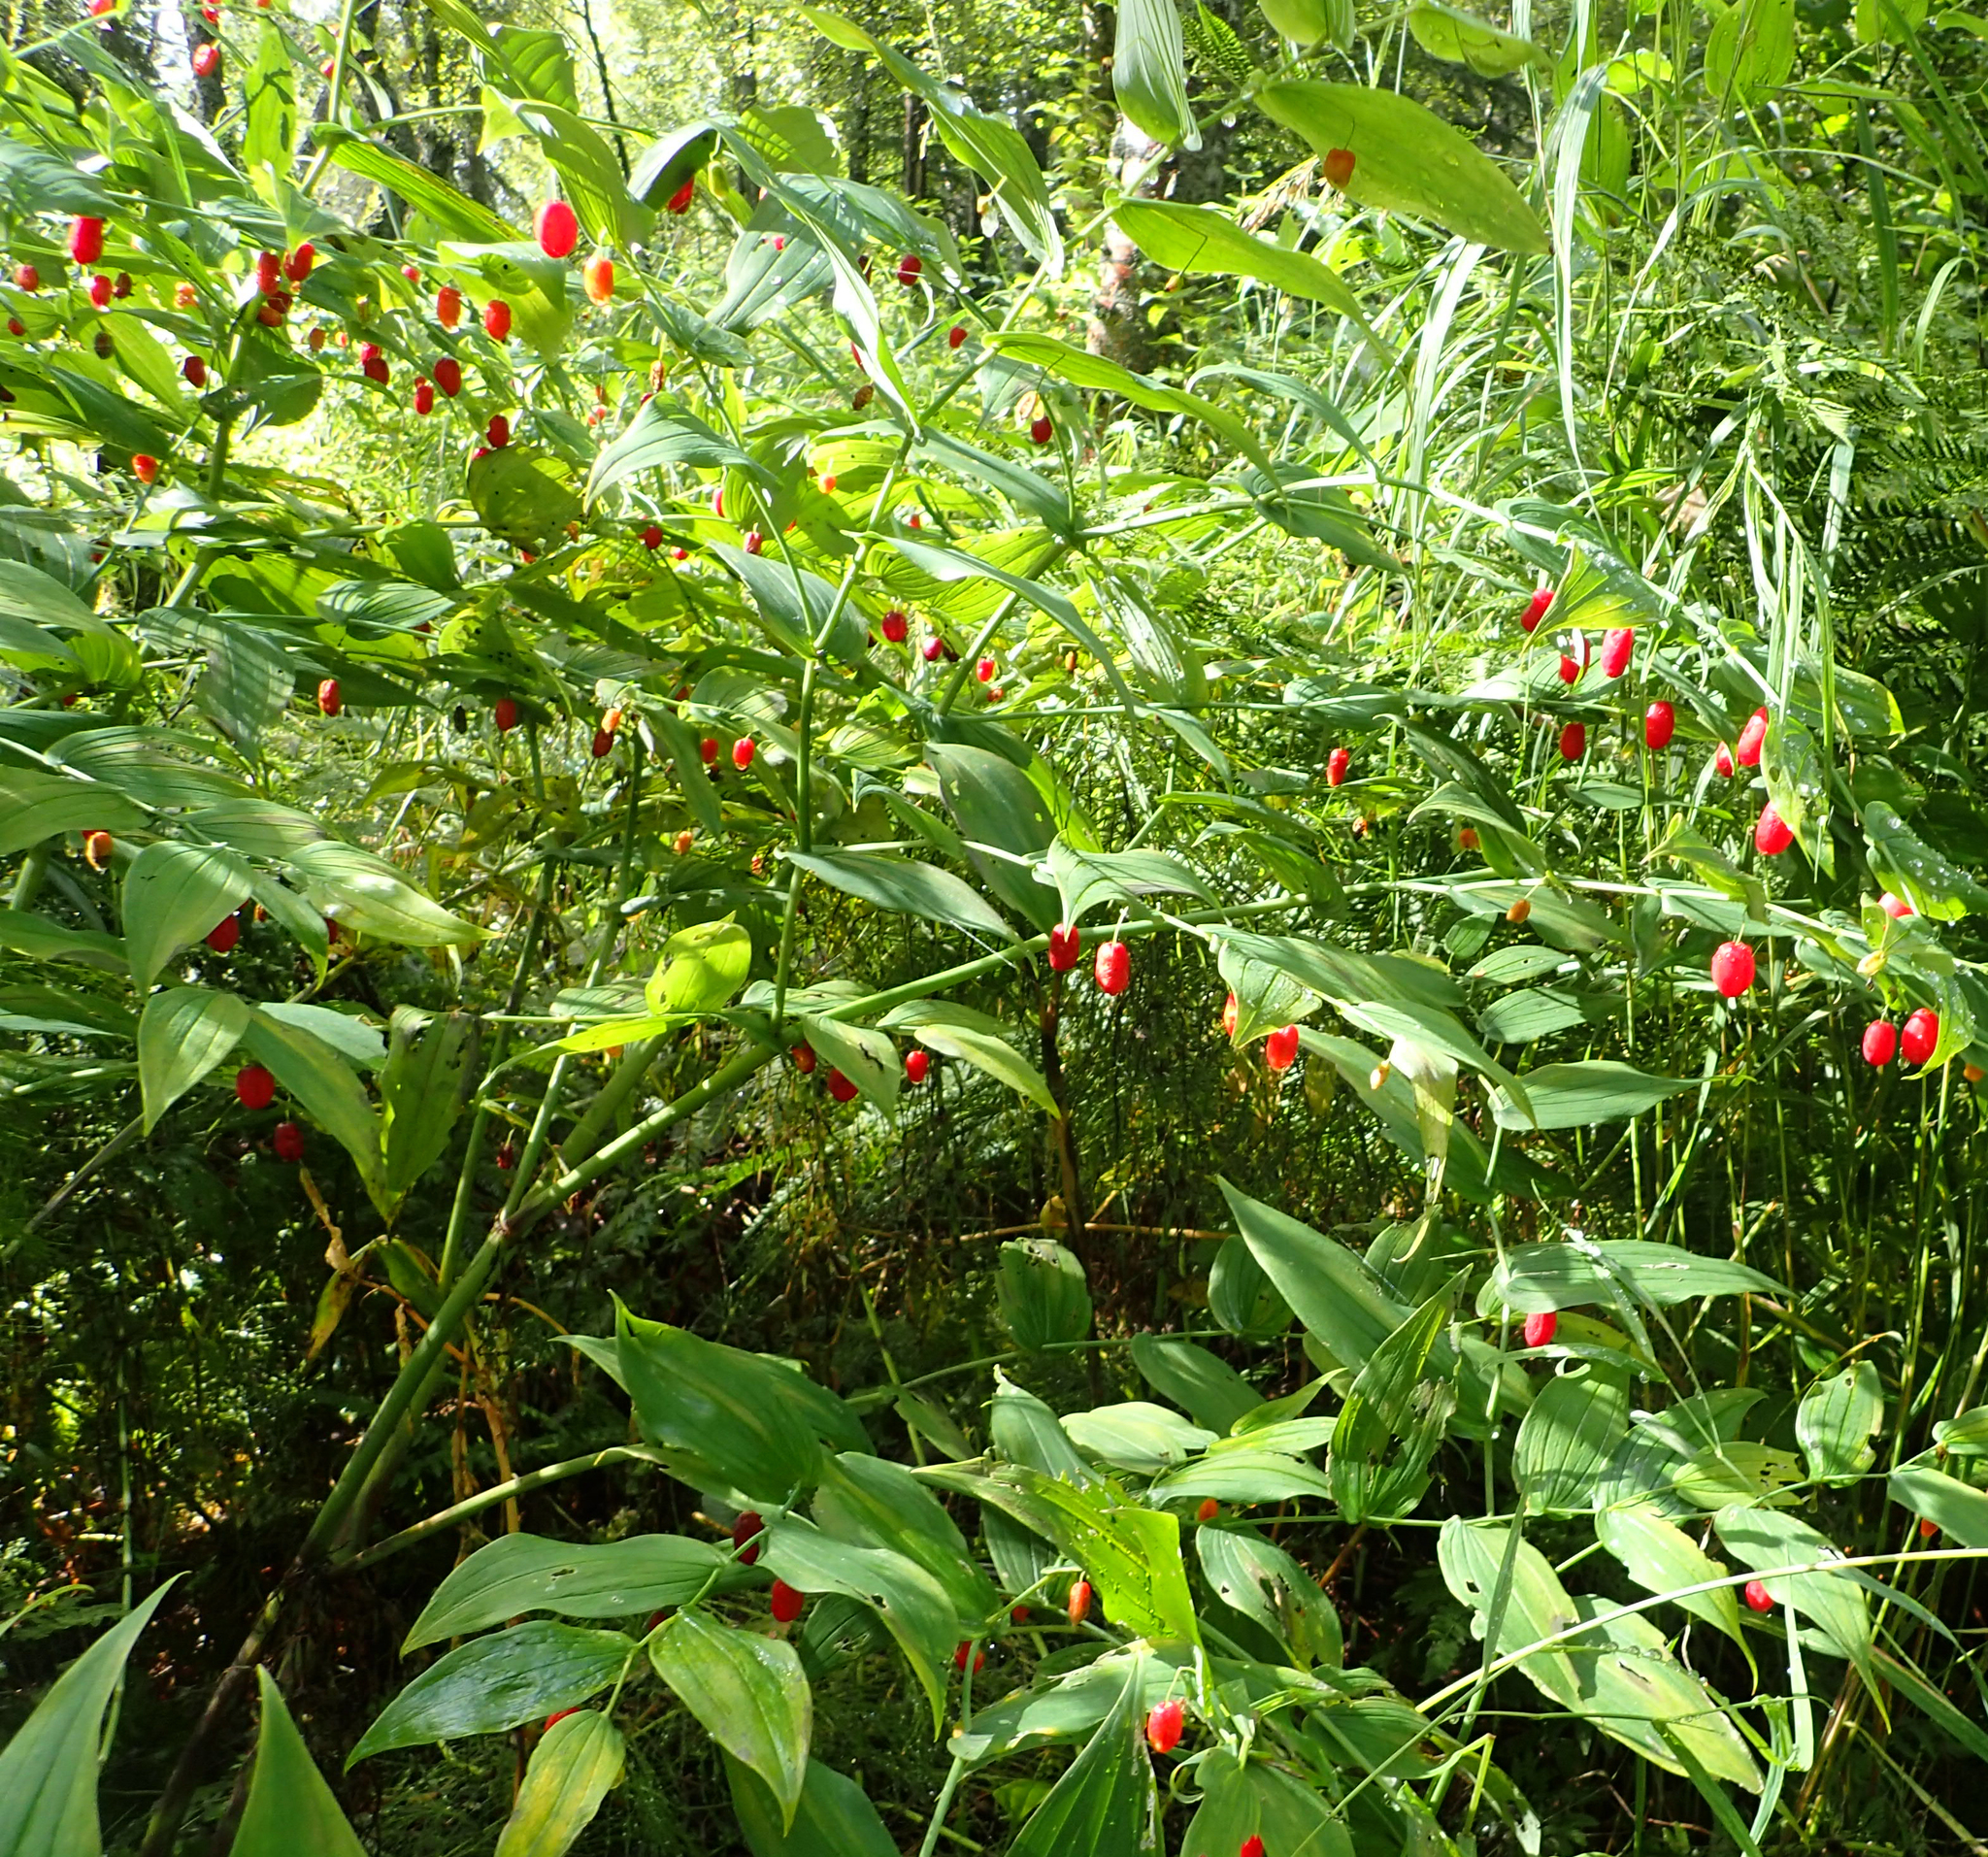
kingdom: Plantae
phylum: Tracheophyta
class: Liliopsida
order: Liliales
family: Liliaceae
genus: Streptopus
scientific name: Streptopus amplexifolius
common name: Clasp twisted stalk
